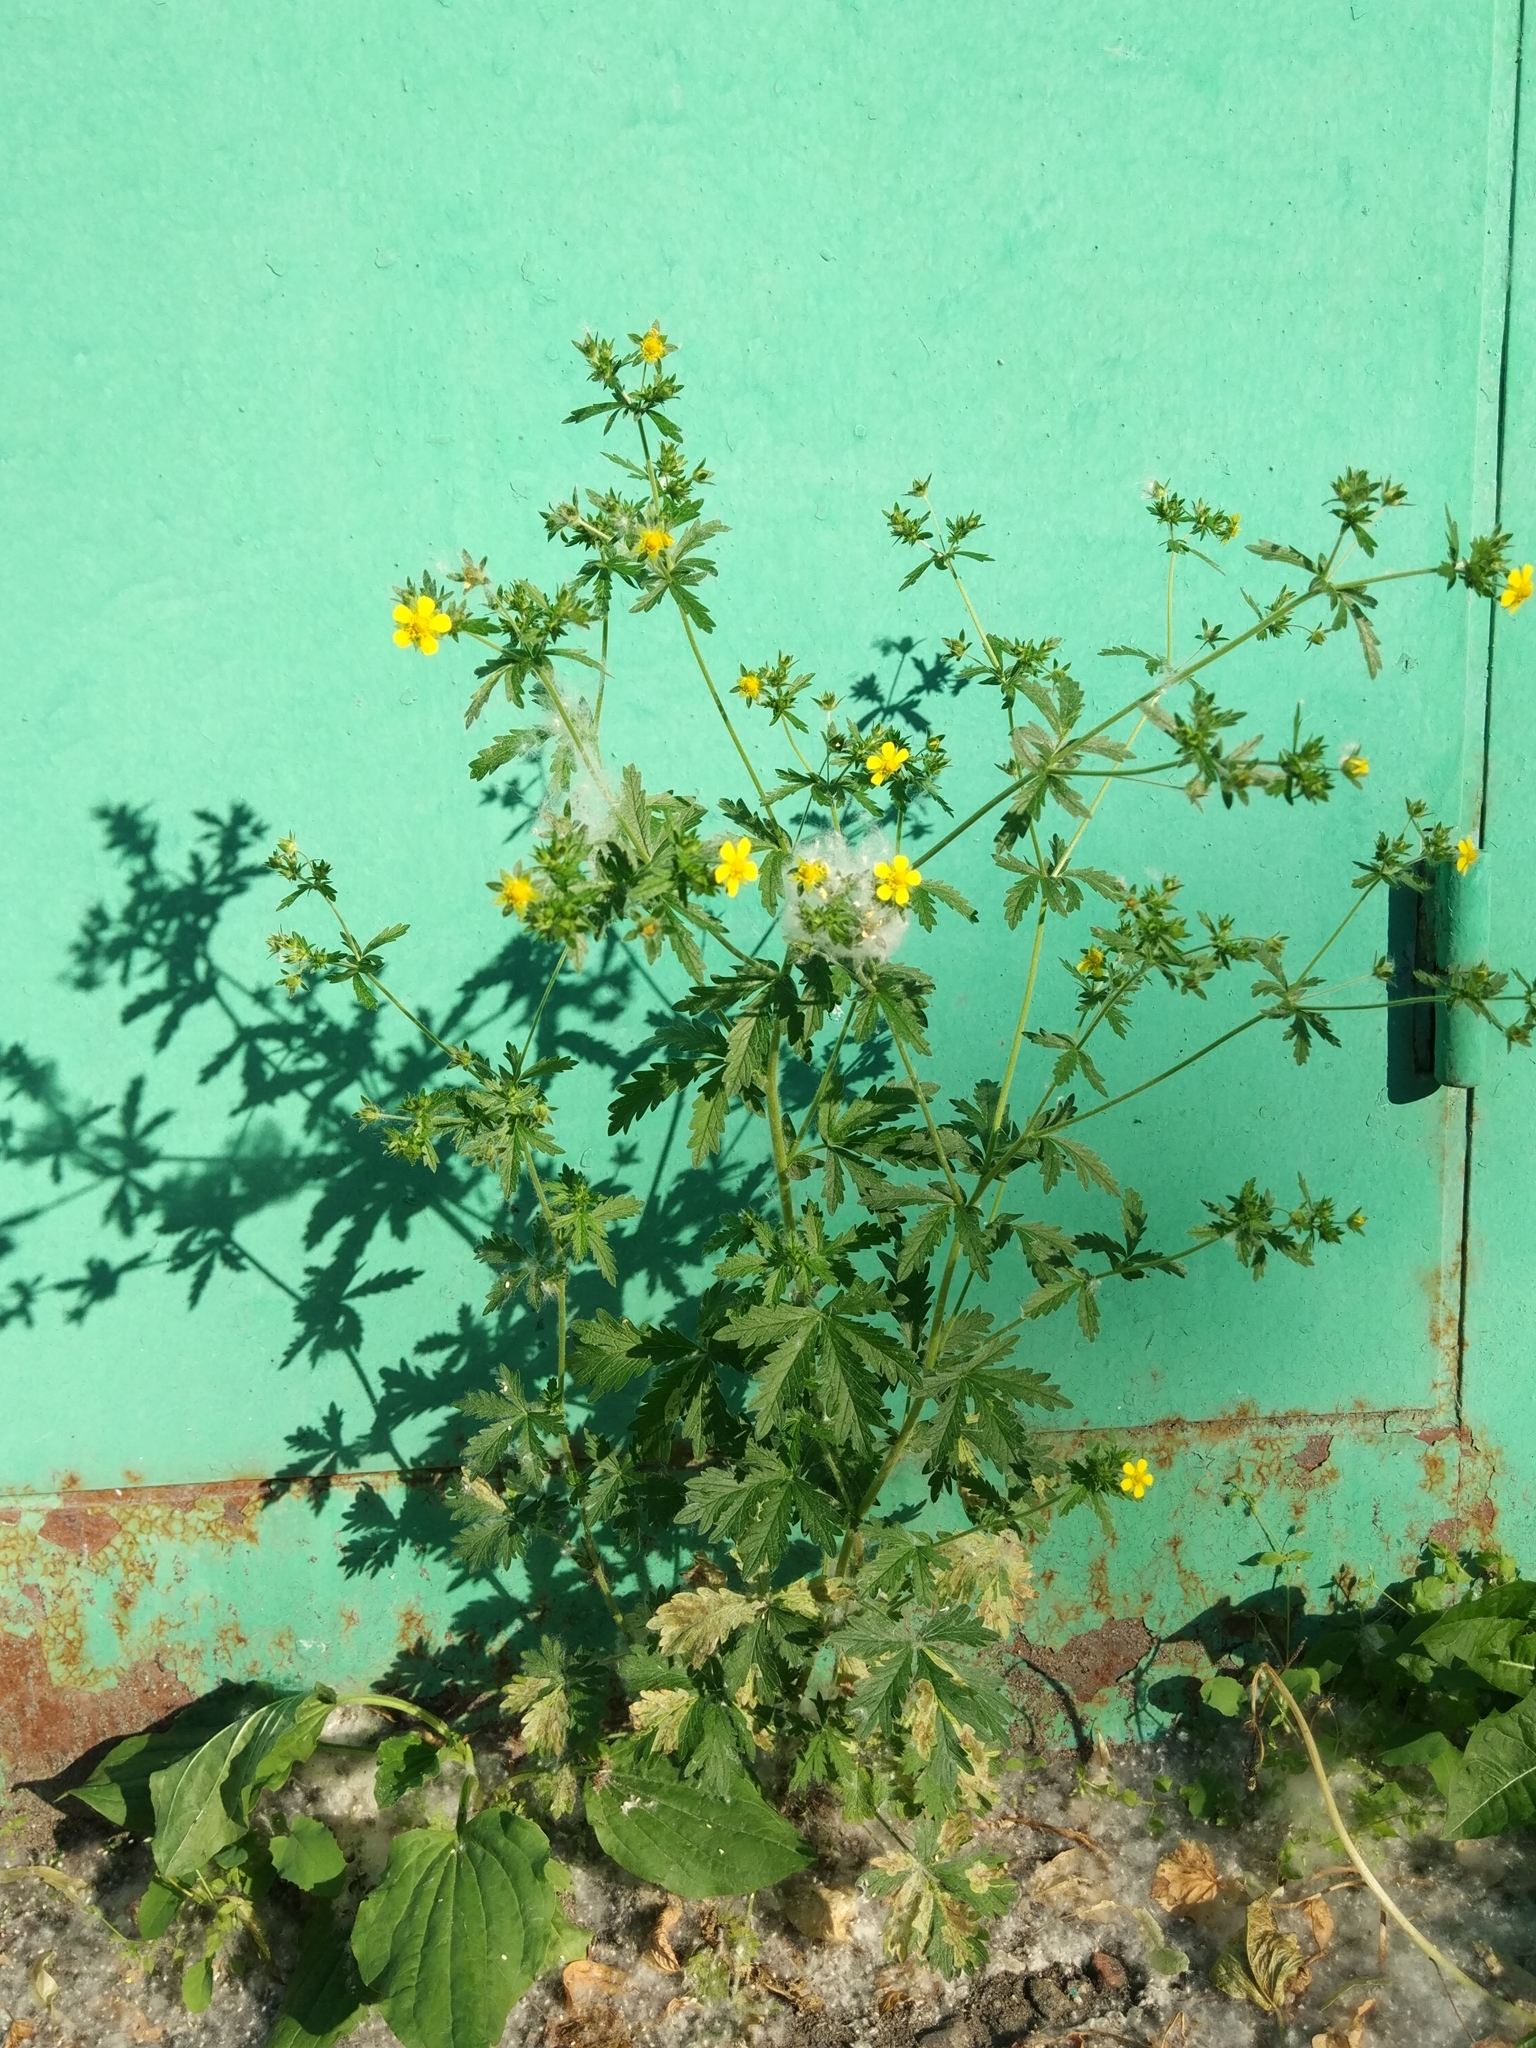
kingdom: Plantae
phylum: Tracheophyta
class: Magnoliopsida
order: Rosales
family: Rosaceae
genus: Potentilla
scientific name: Potentilla intermedia
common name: Downy cinquefoil
